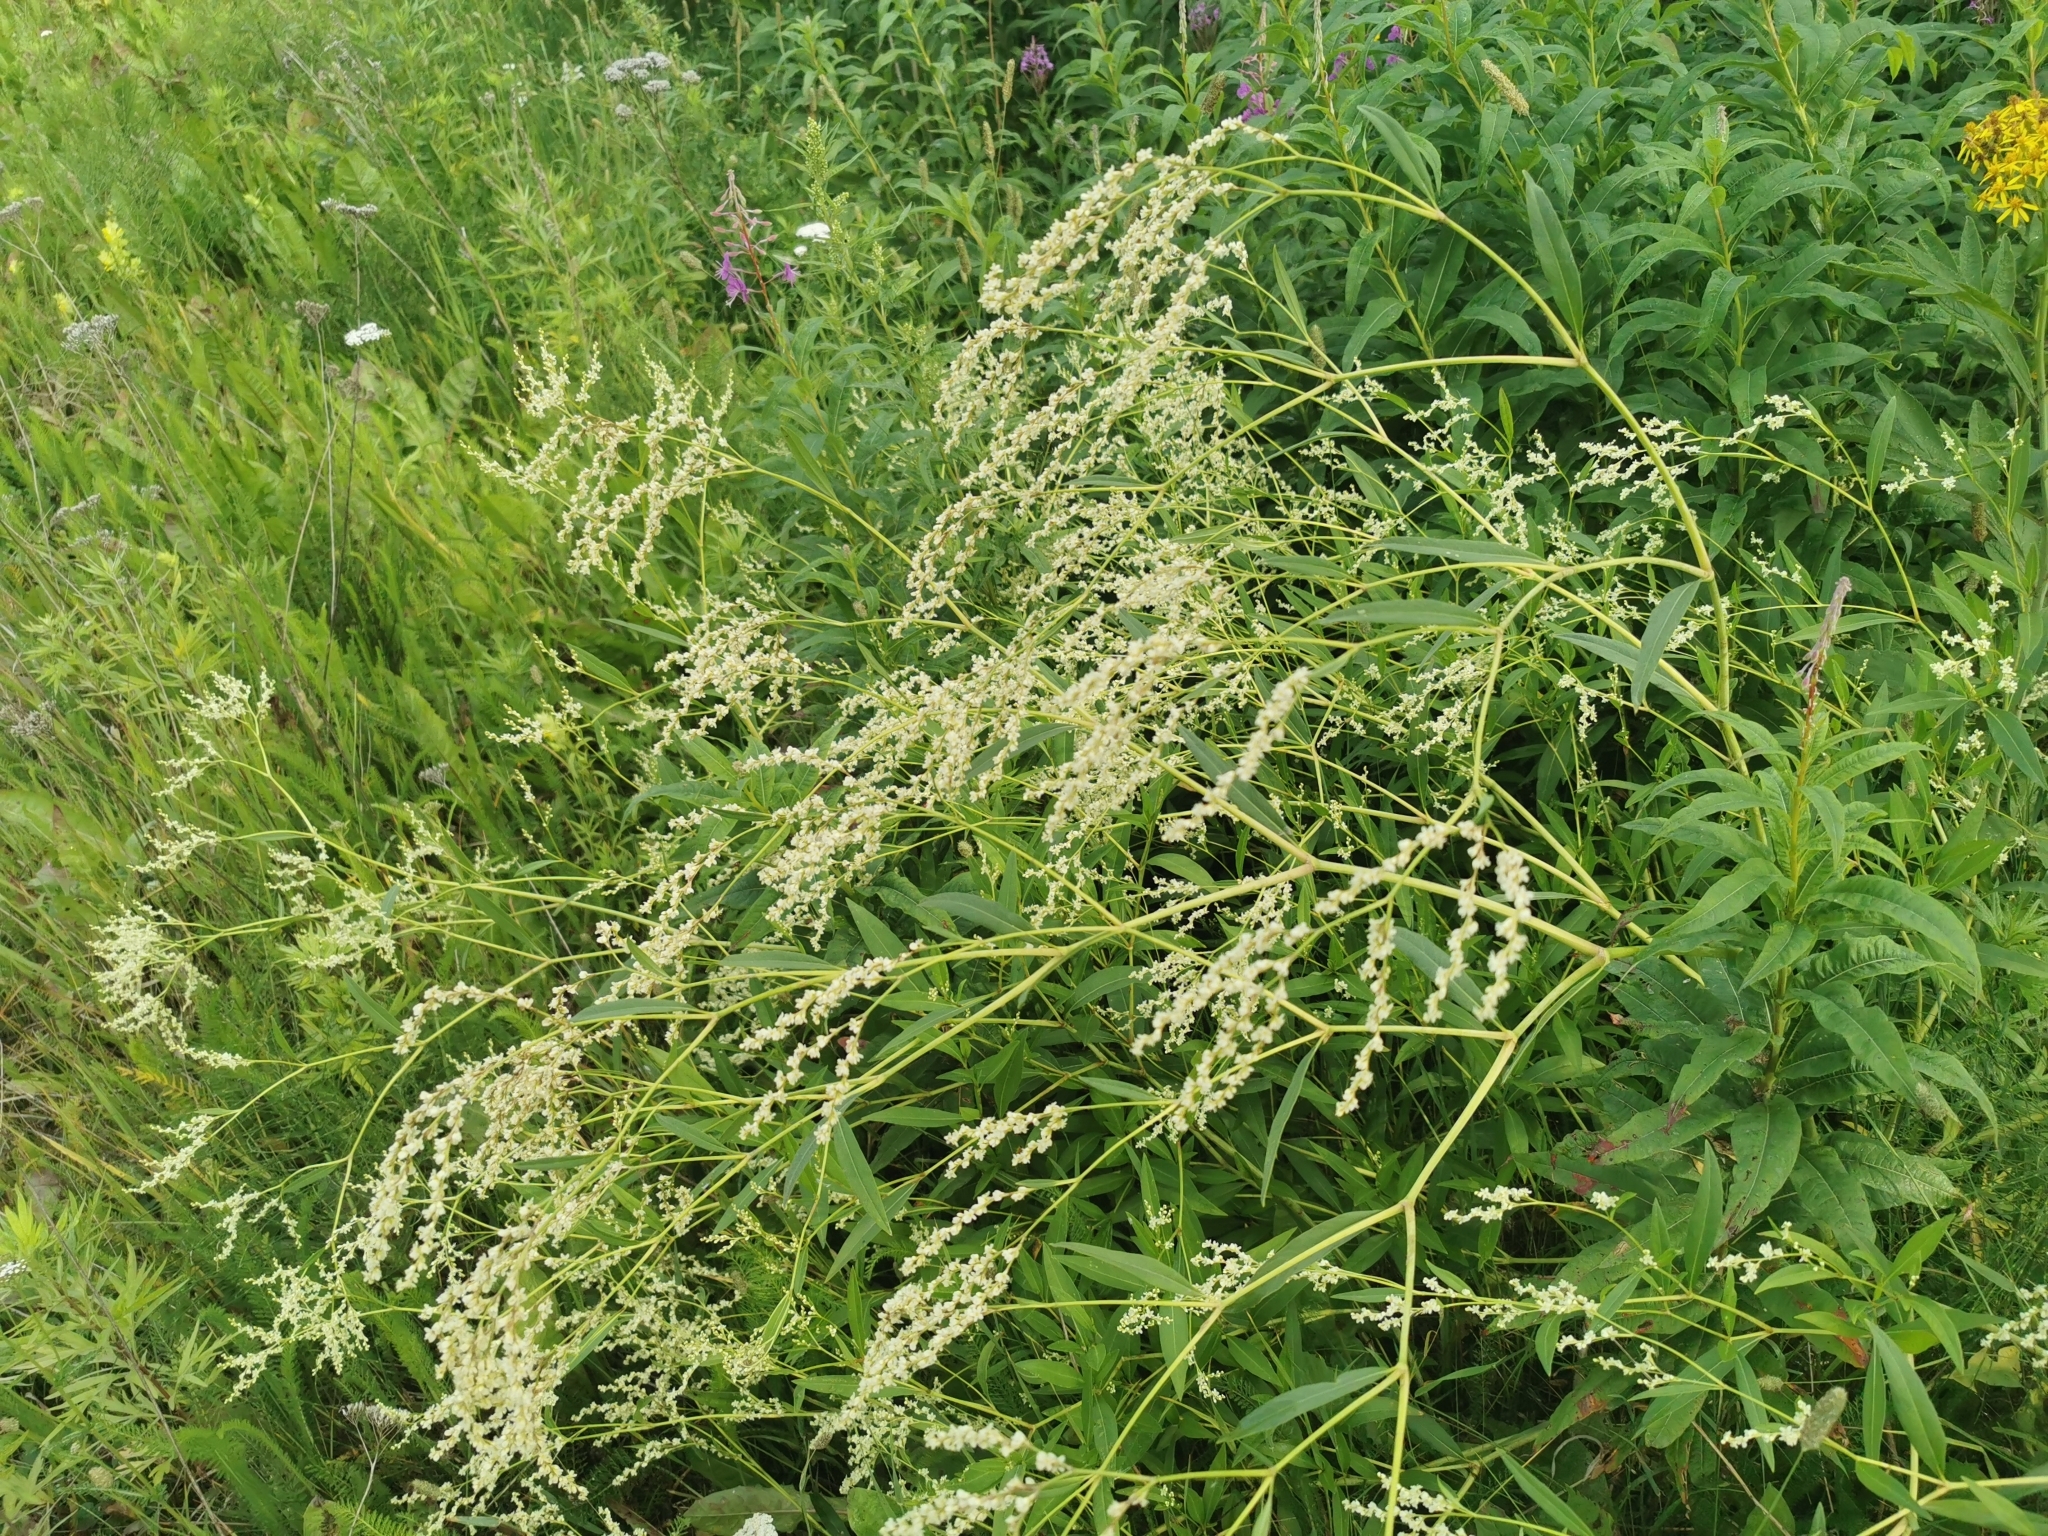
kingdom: Plantae
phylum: Tracheophyta
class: Magnoliopsida
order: Caryophyllales
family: Polygonaceae
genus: Koenigia
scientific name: Koenigia divaricata
